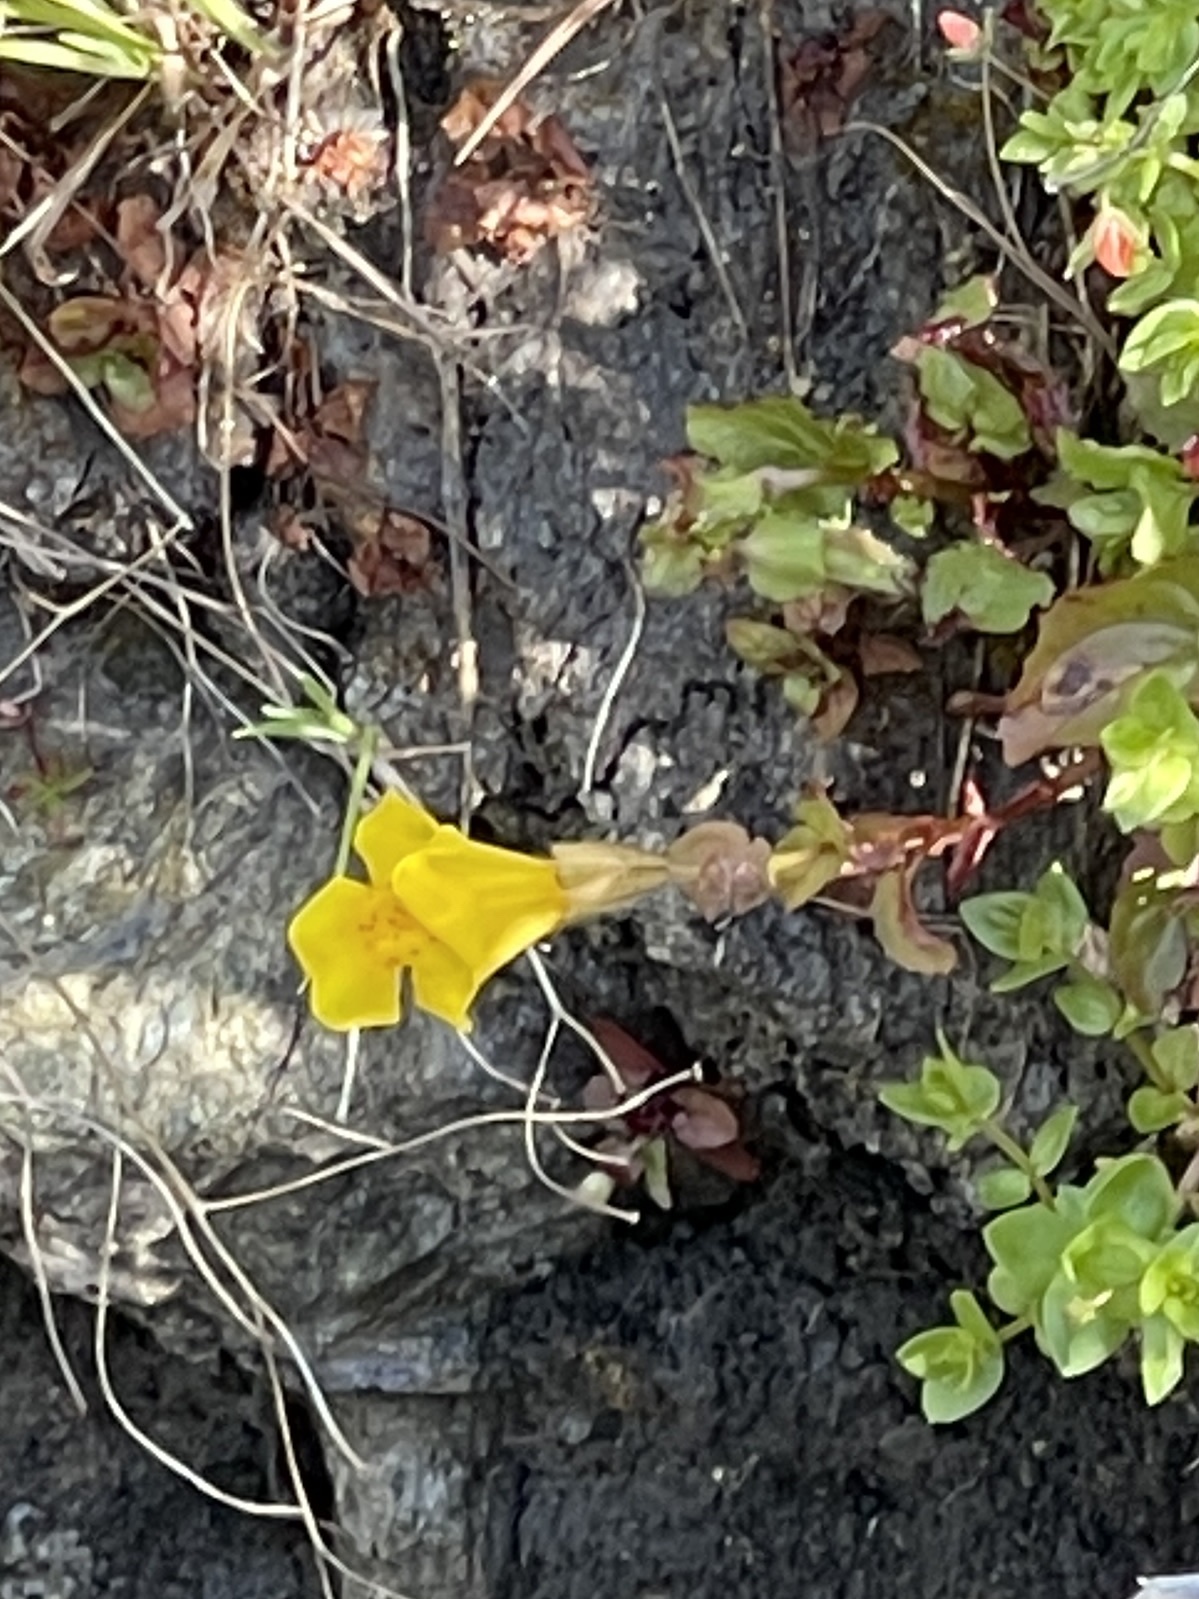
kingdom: Plantae
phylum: Tracheophyta
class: Magnoliopsida
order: Lamiales
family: Phrymaceae
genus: Erythranthe
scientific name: Erythranthe guttata
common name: Monkeyflower
